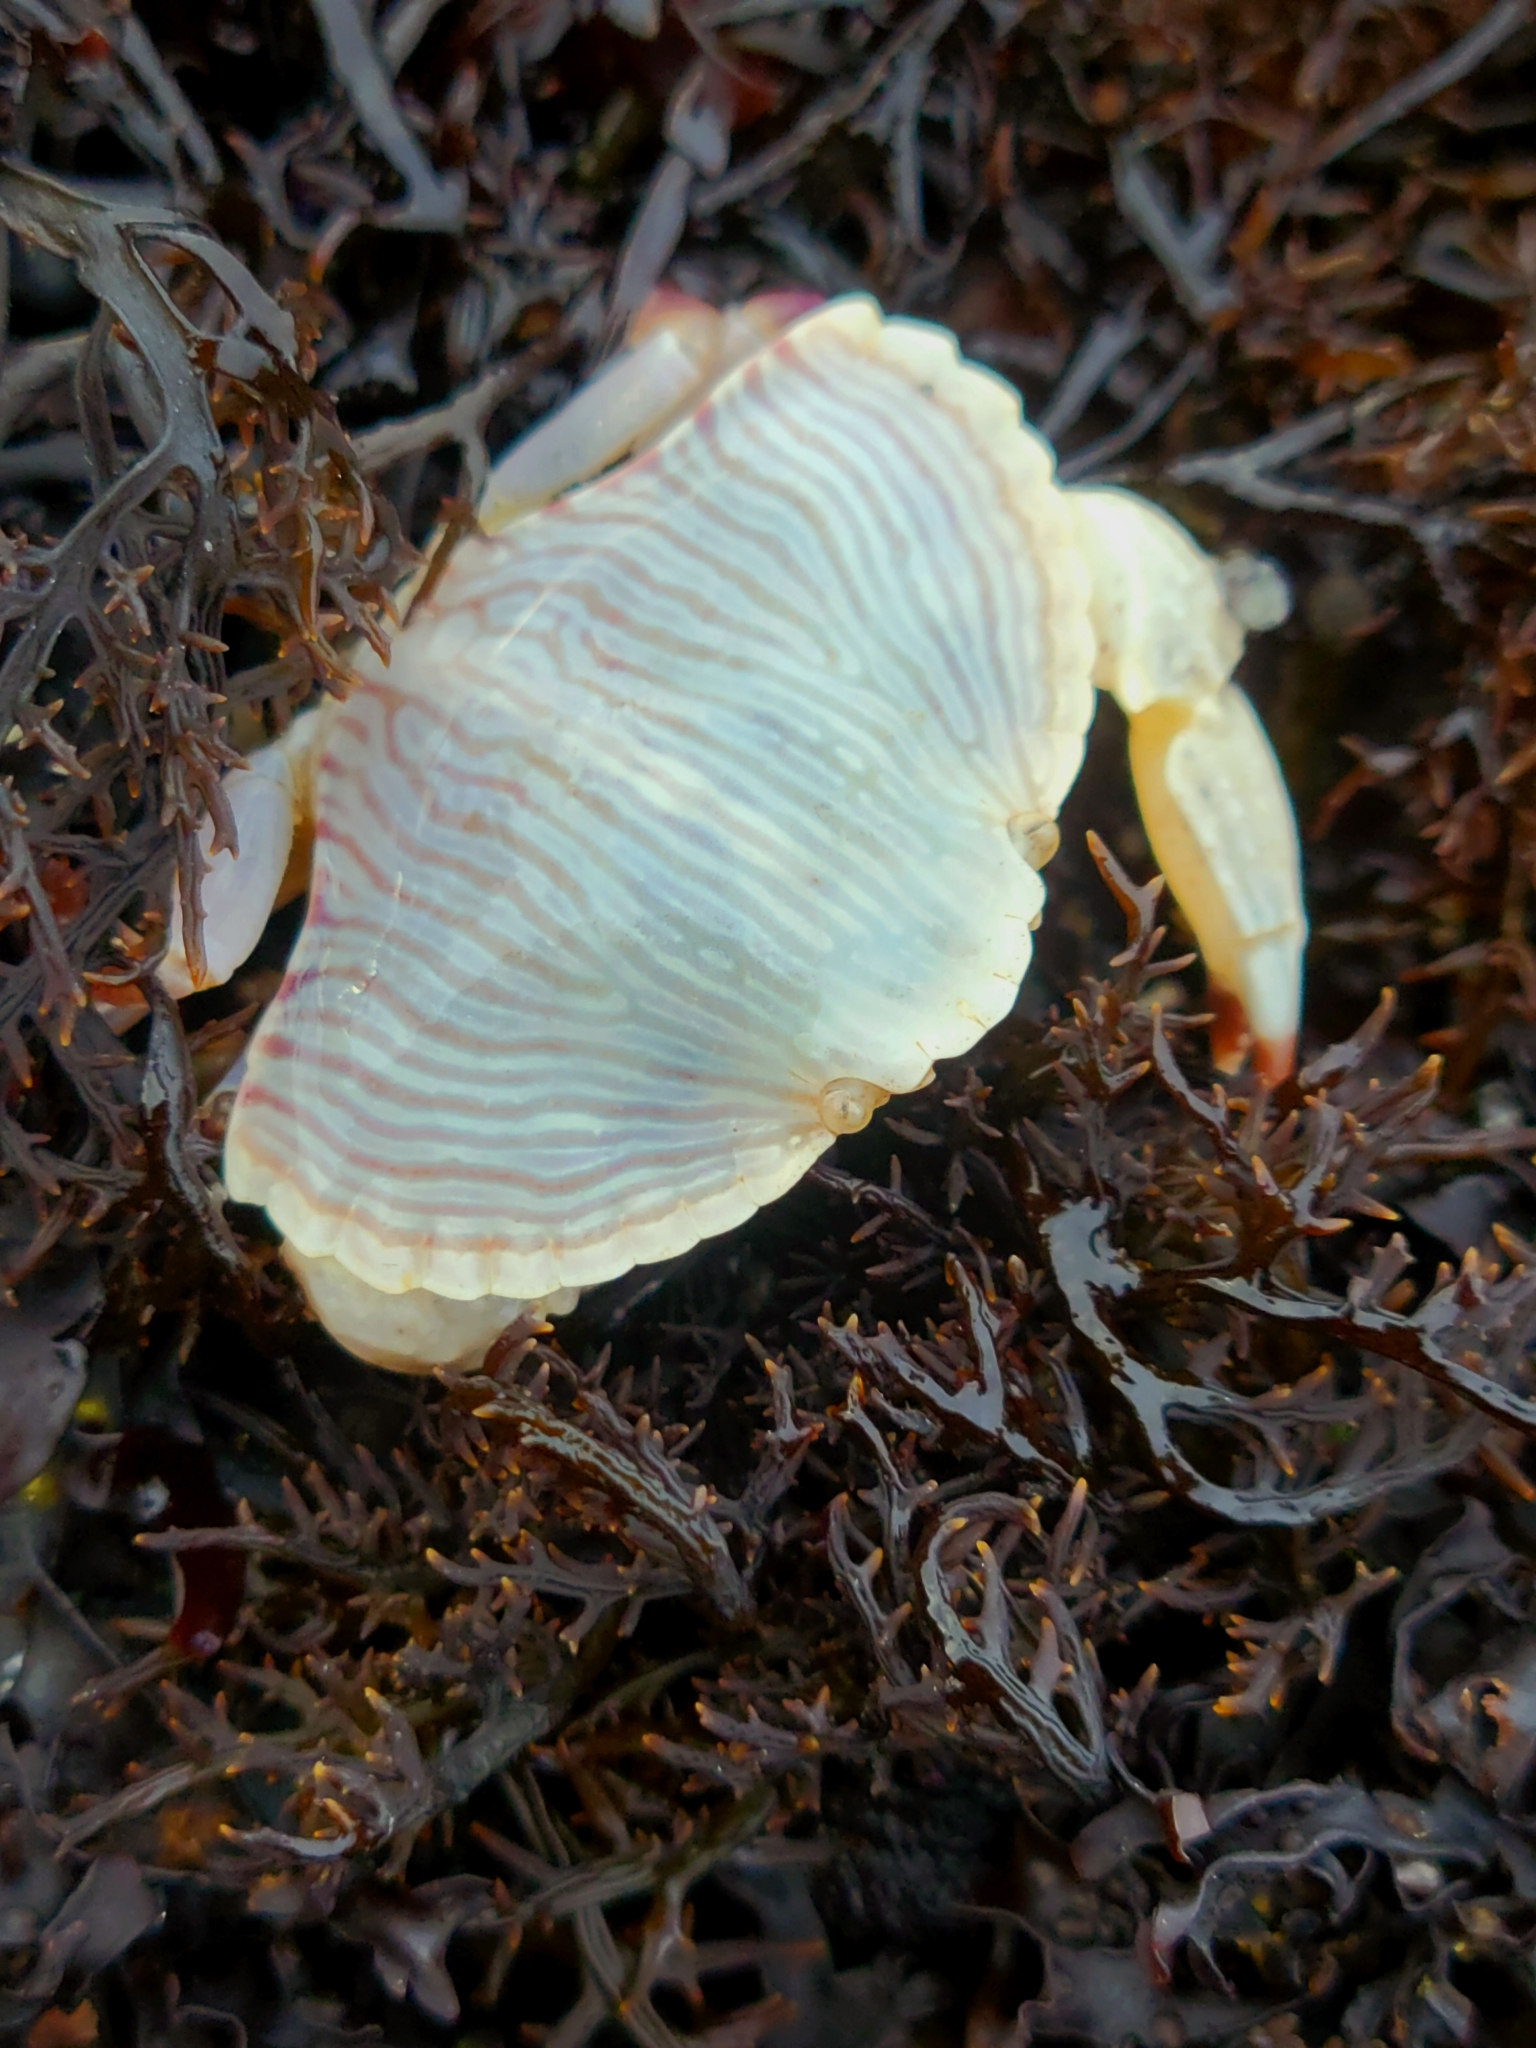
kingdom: Animalia
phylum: Arthropoda
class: Malacostraca
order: Decapoda
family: Cancridae
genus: Cancer
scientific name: Cancer productus
